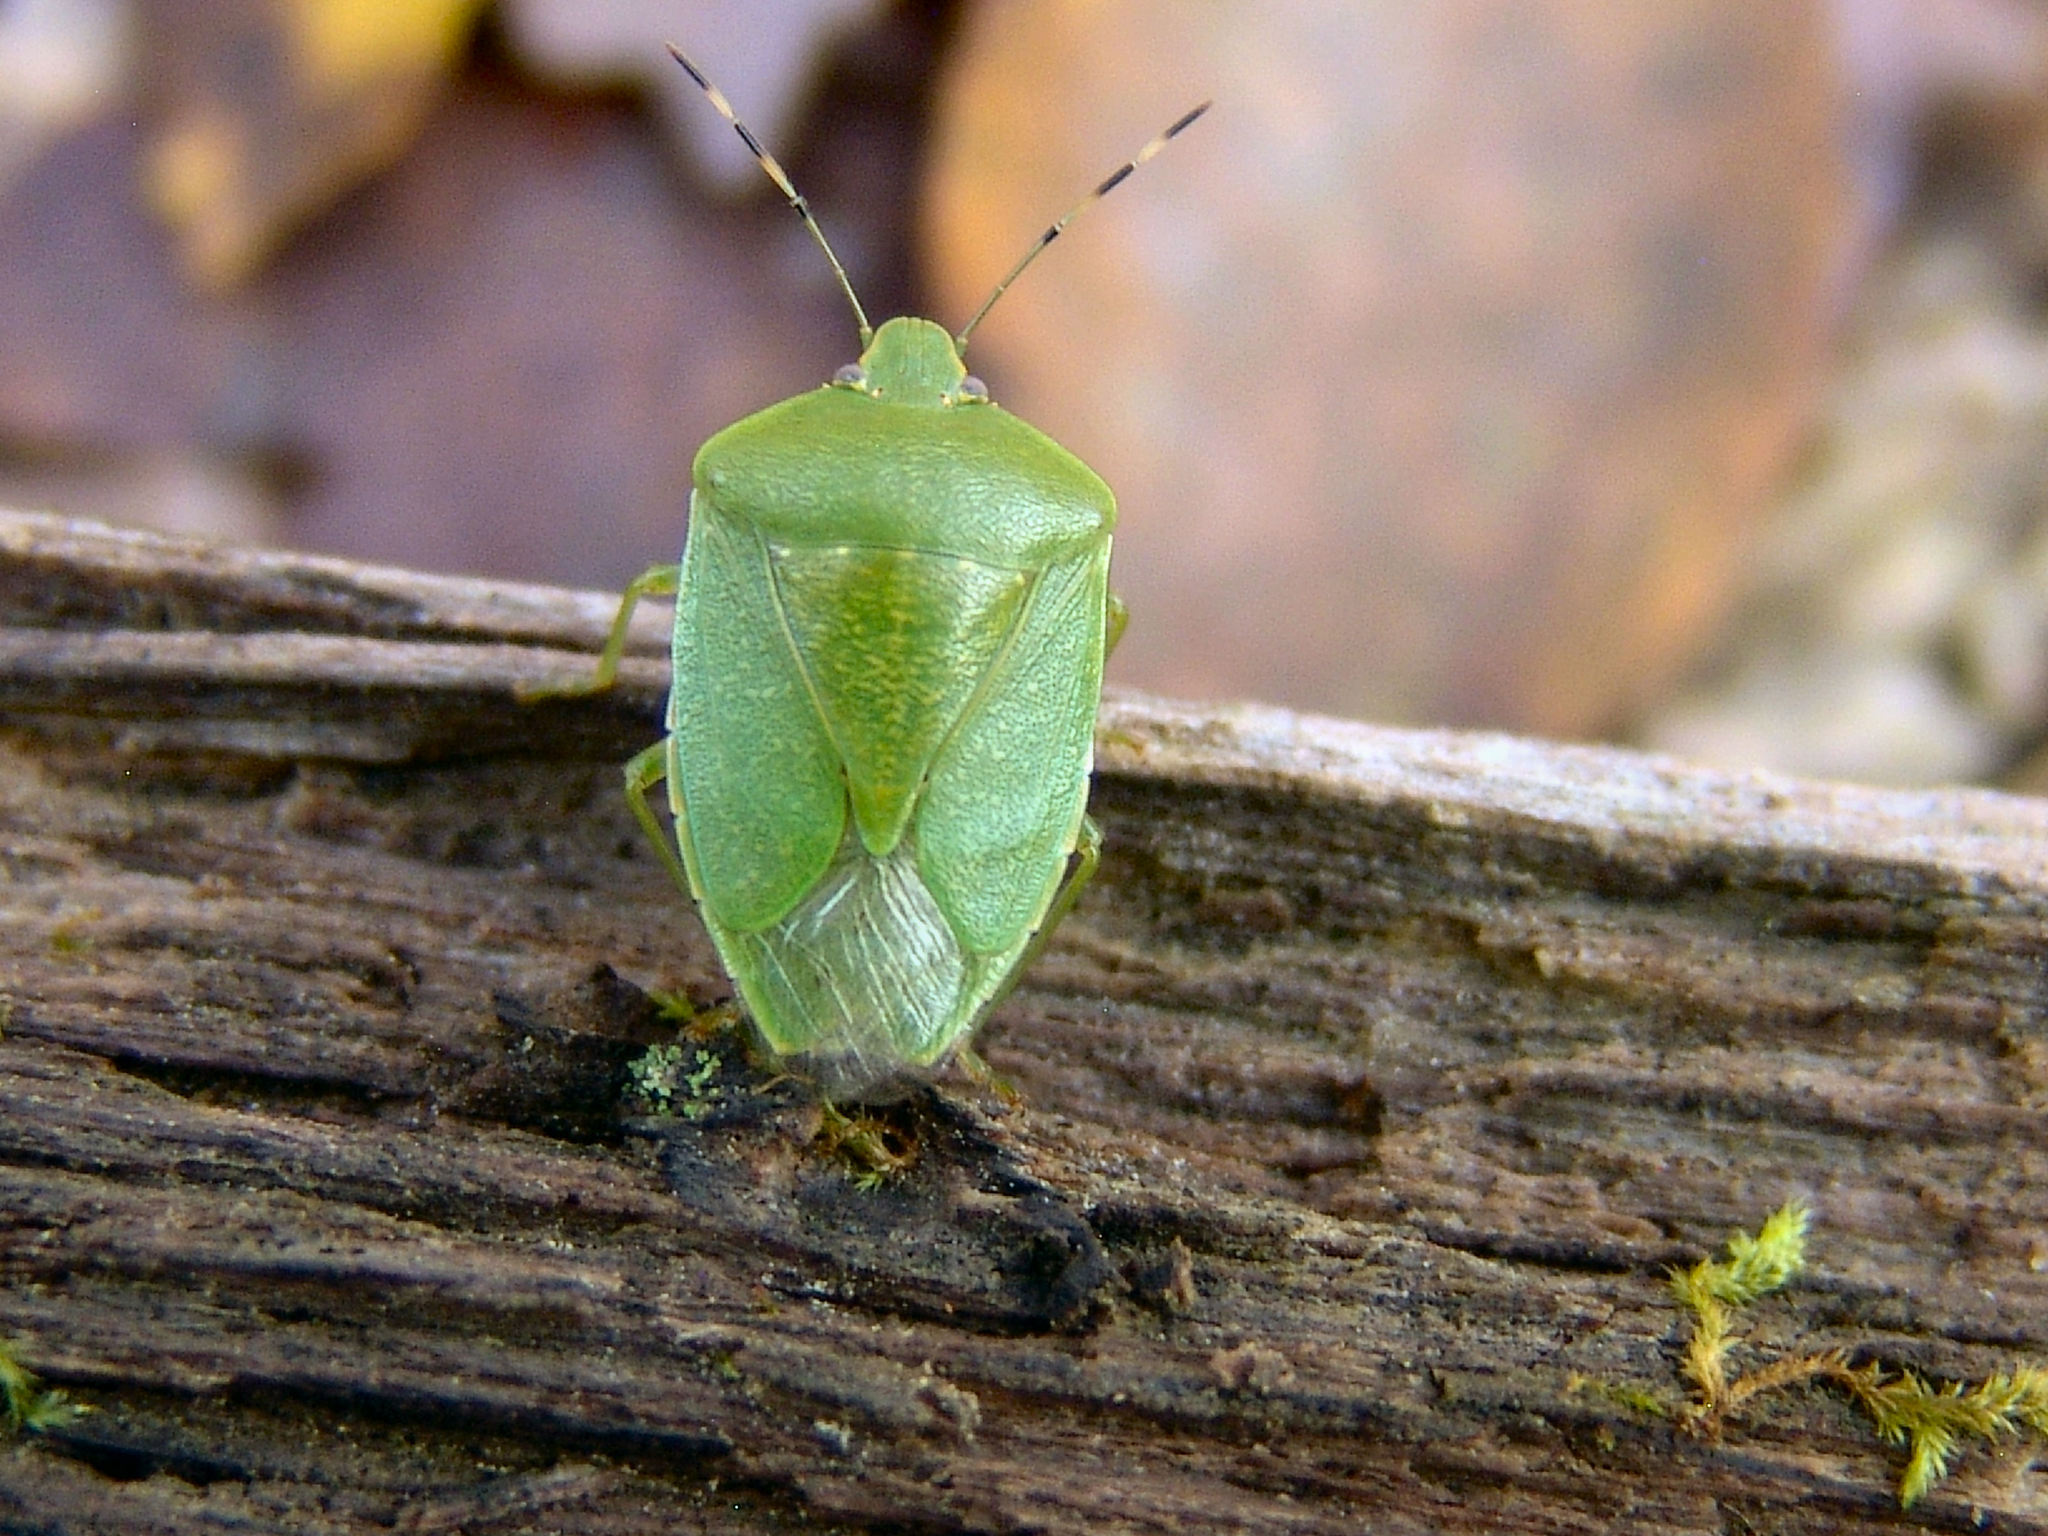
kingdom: Animalia
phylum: Arthropoda
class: Insecta
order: Hemiptera
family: Pentatomidae
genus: Chinavia
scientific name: Chinavia hilaris
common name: Green stink bug
